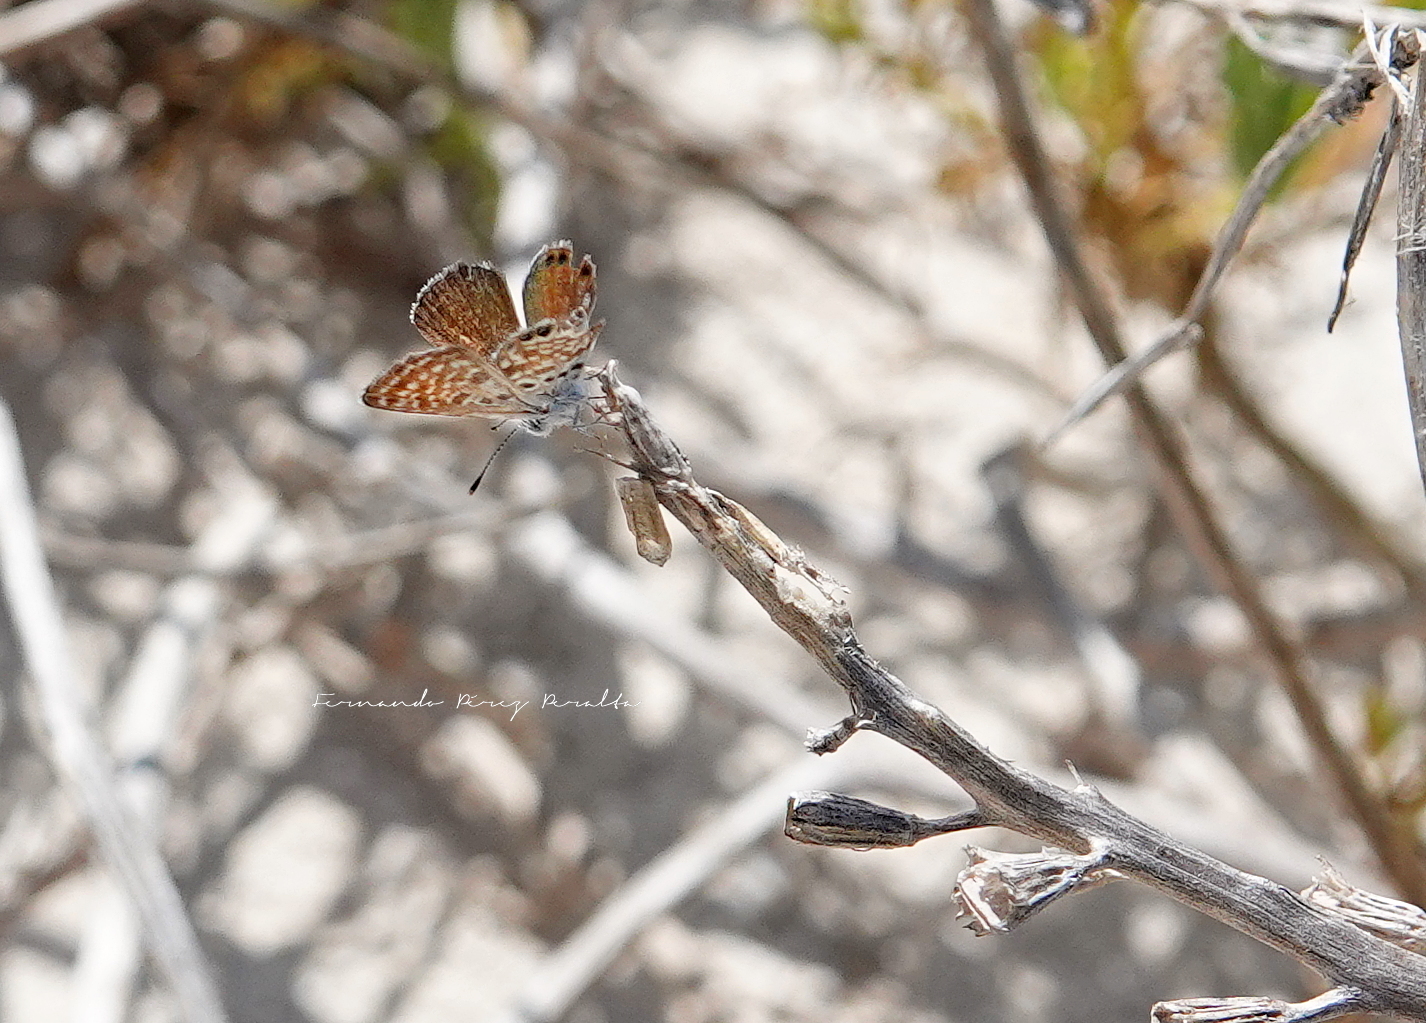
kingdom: Animalia
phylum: Arthropoda
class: Insecta
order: Lepidoptera
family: Lycaenidae
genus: Brephidium
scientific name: Brephidium exilis
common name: Pygmy blue
